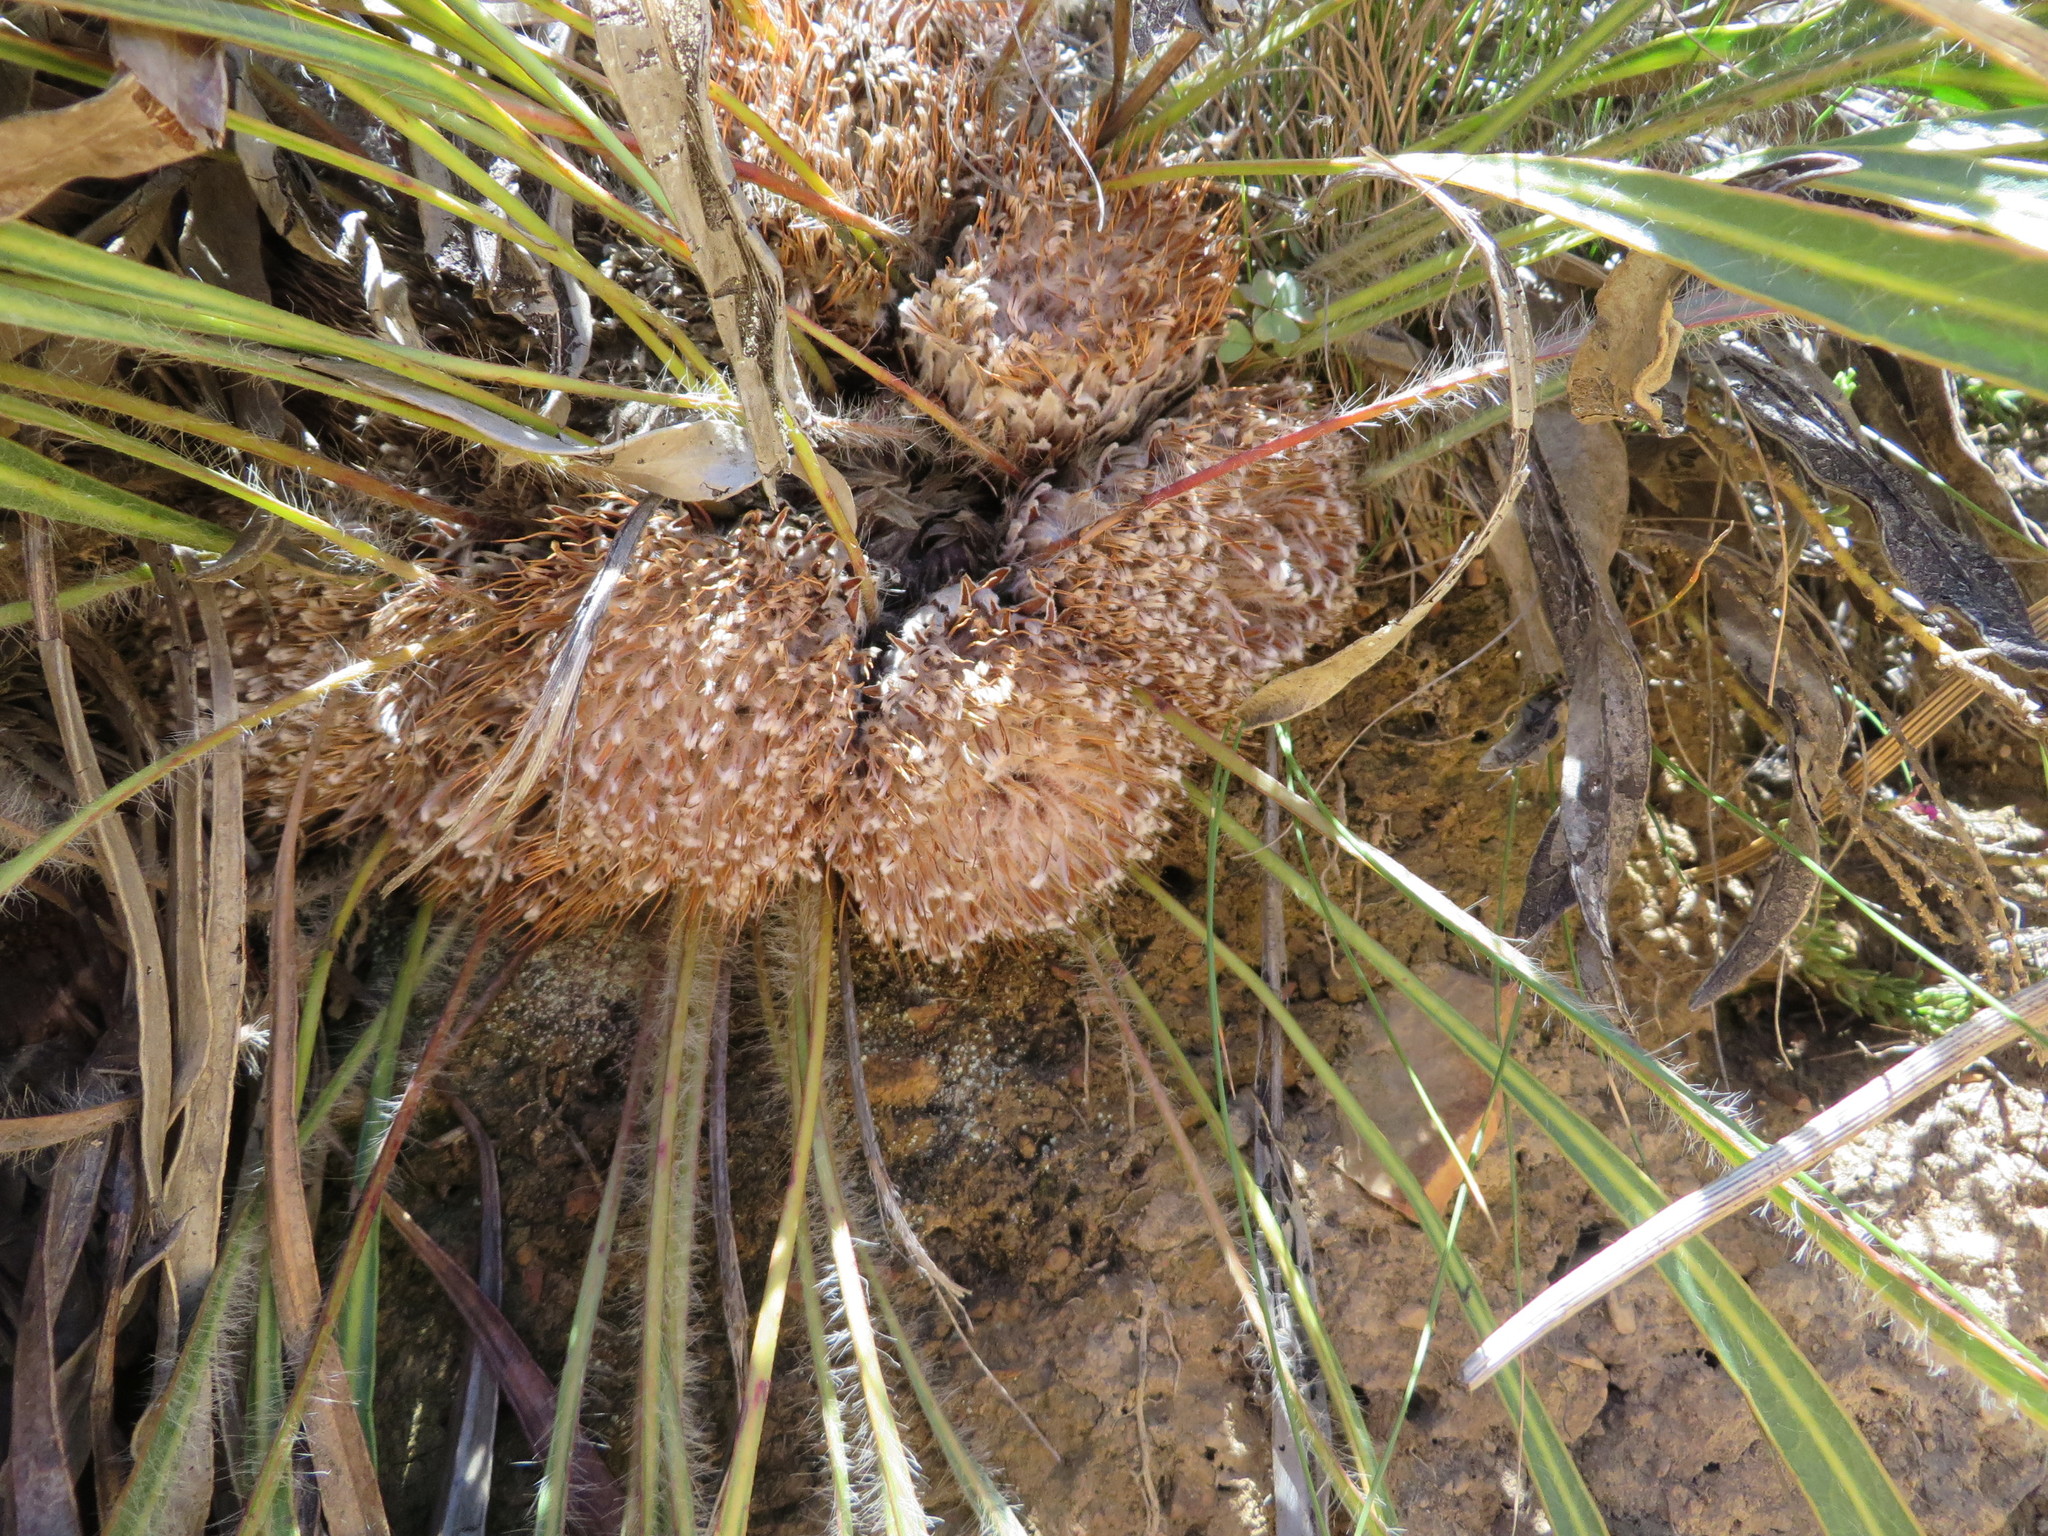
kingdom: Plantae
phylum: Tracheophyta
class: Magnoliopsida
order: Proteales
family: Proteaceae
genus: Protea
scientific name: Protea scabriuscula
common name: Hoary sugarbush
